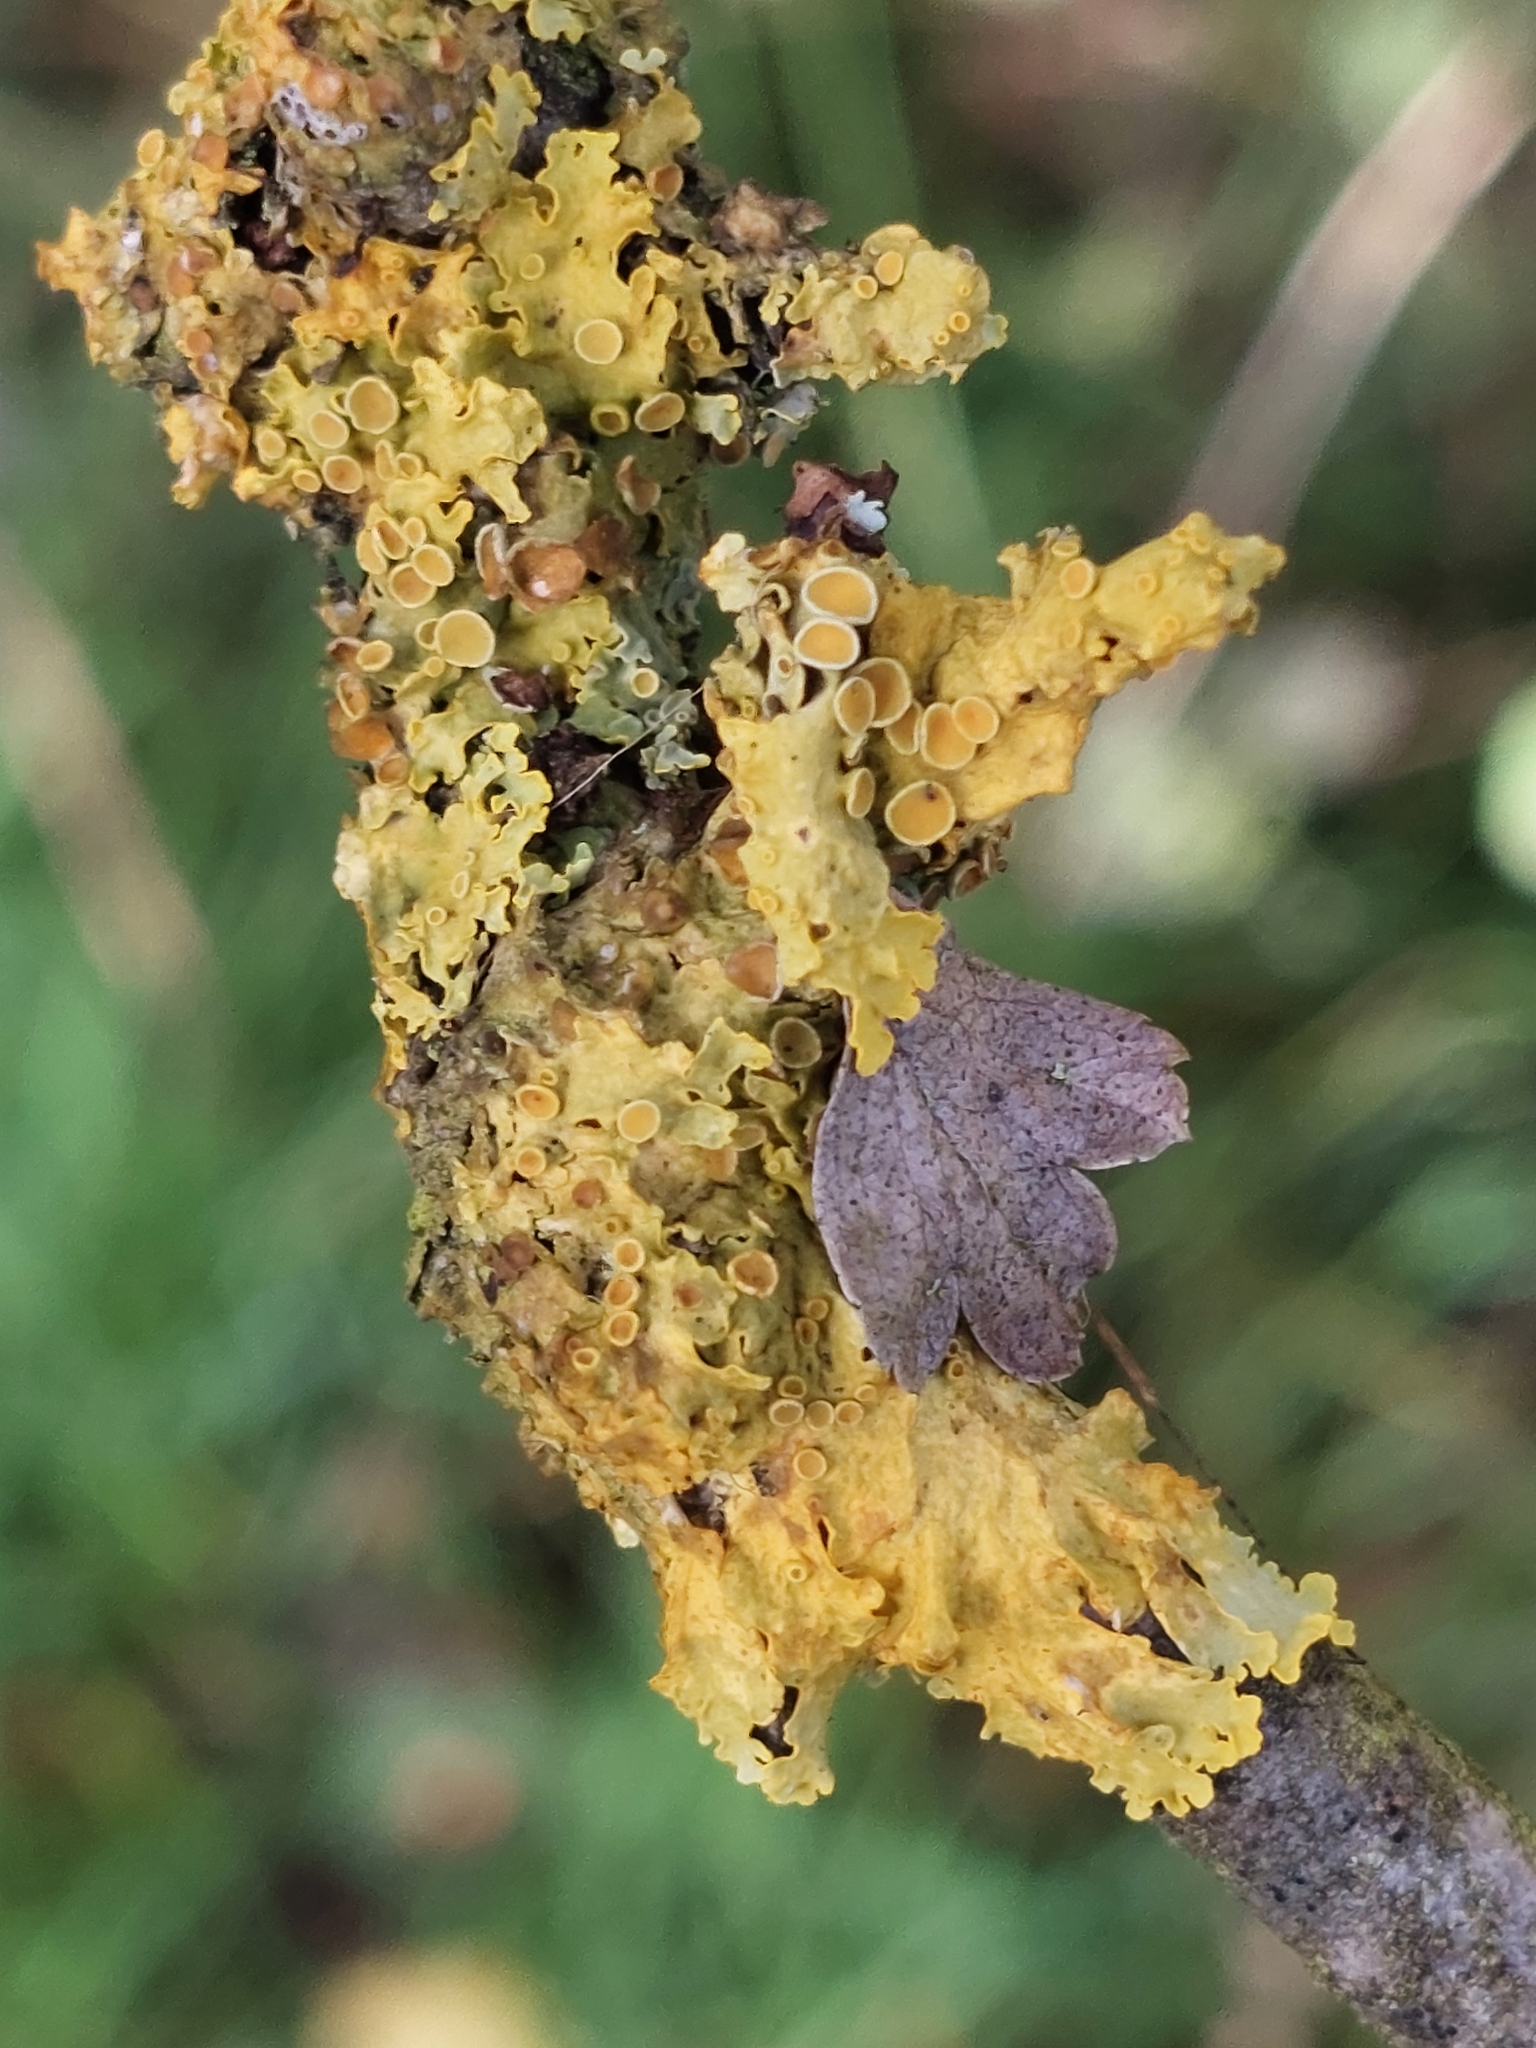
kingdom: Fungi
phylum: Ascomycota
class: Lecanoromycetes
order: Teloschistales
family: Teloschistaceae
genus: Xanthoria
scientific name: Xanthoria parietina
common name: Common orange lichen
